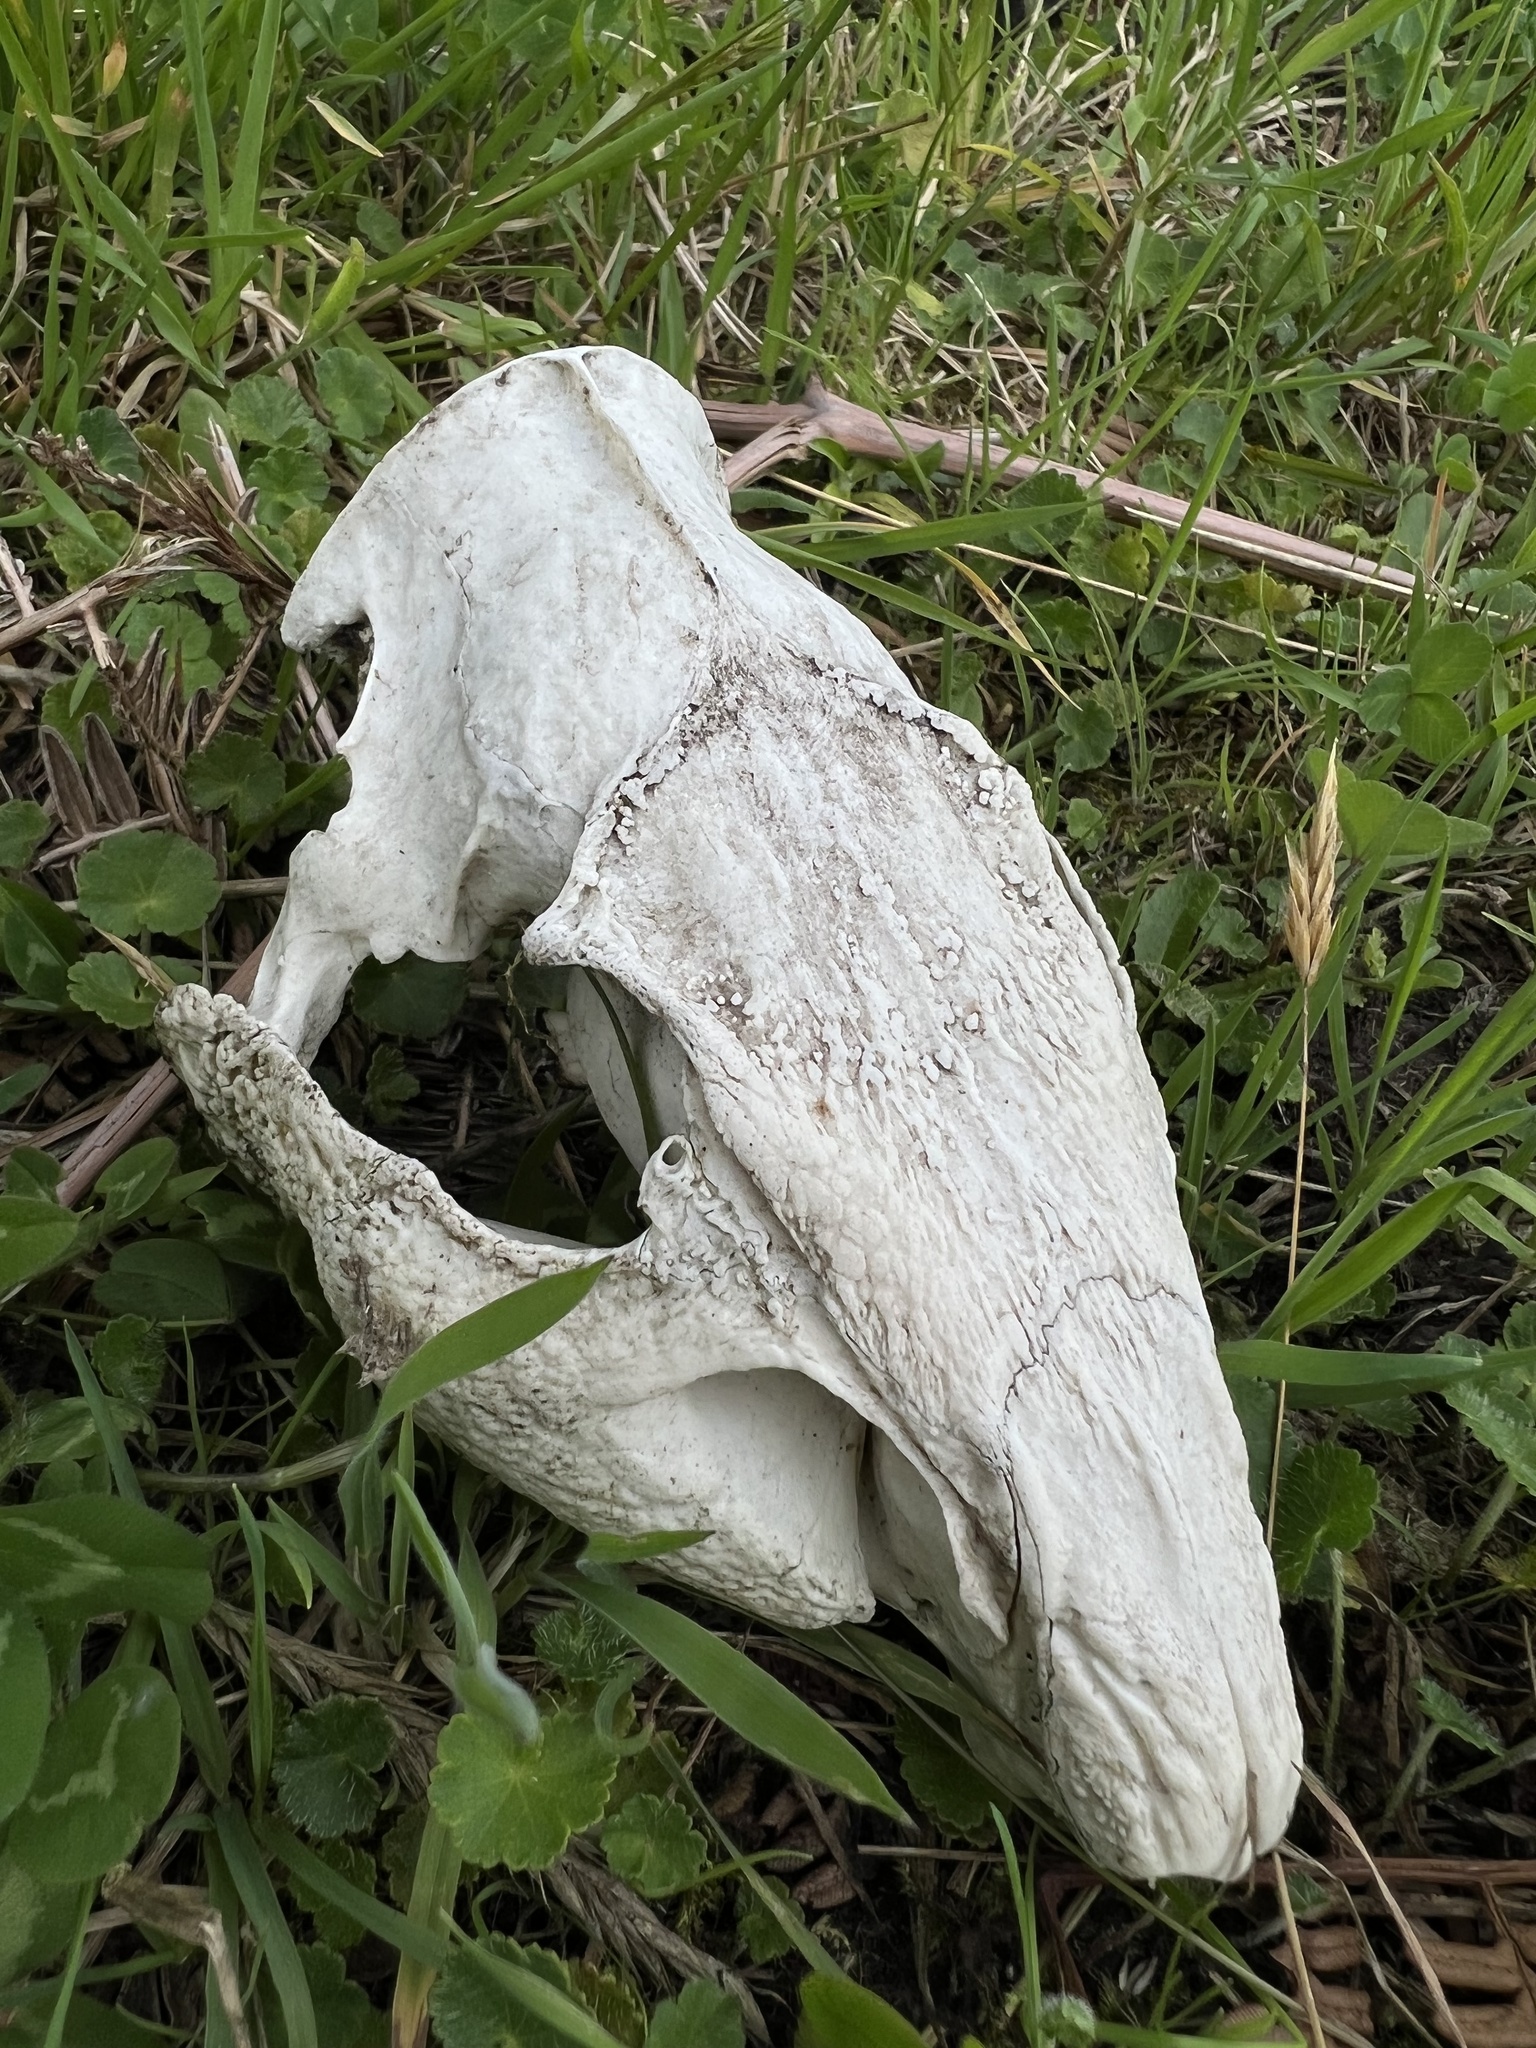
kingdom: Animalia
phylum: Chordata
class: Mammalia
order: Rodentia
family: Cuniculidae
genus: Cuniculus
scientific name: Cuniculus taczanowskii
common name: Mountain paca
